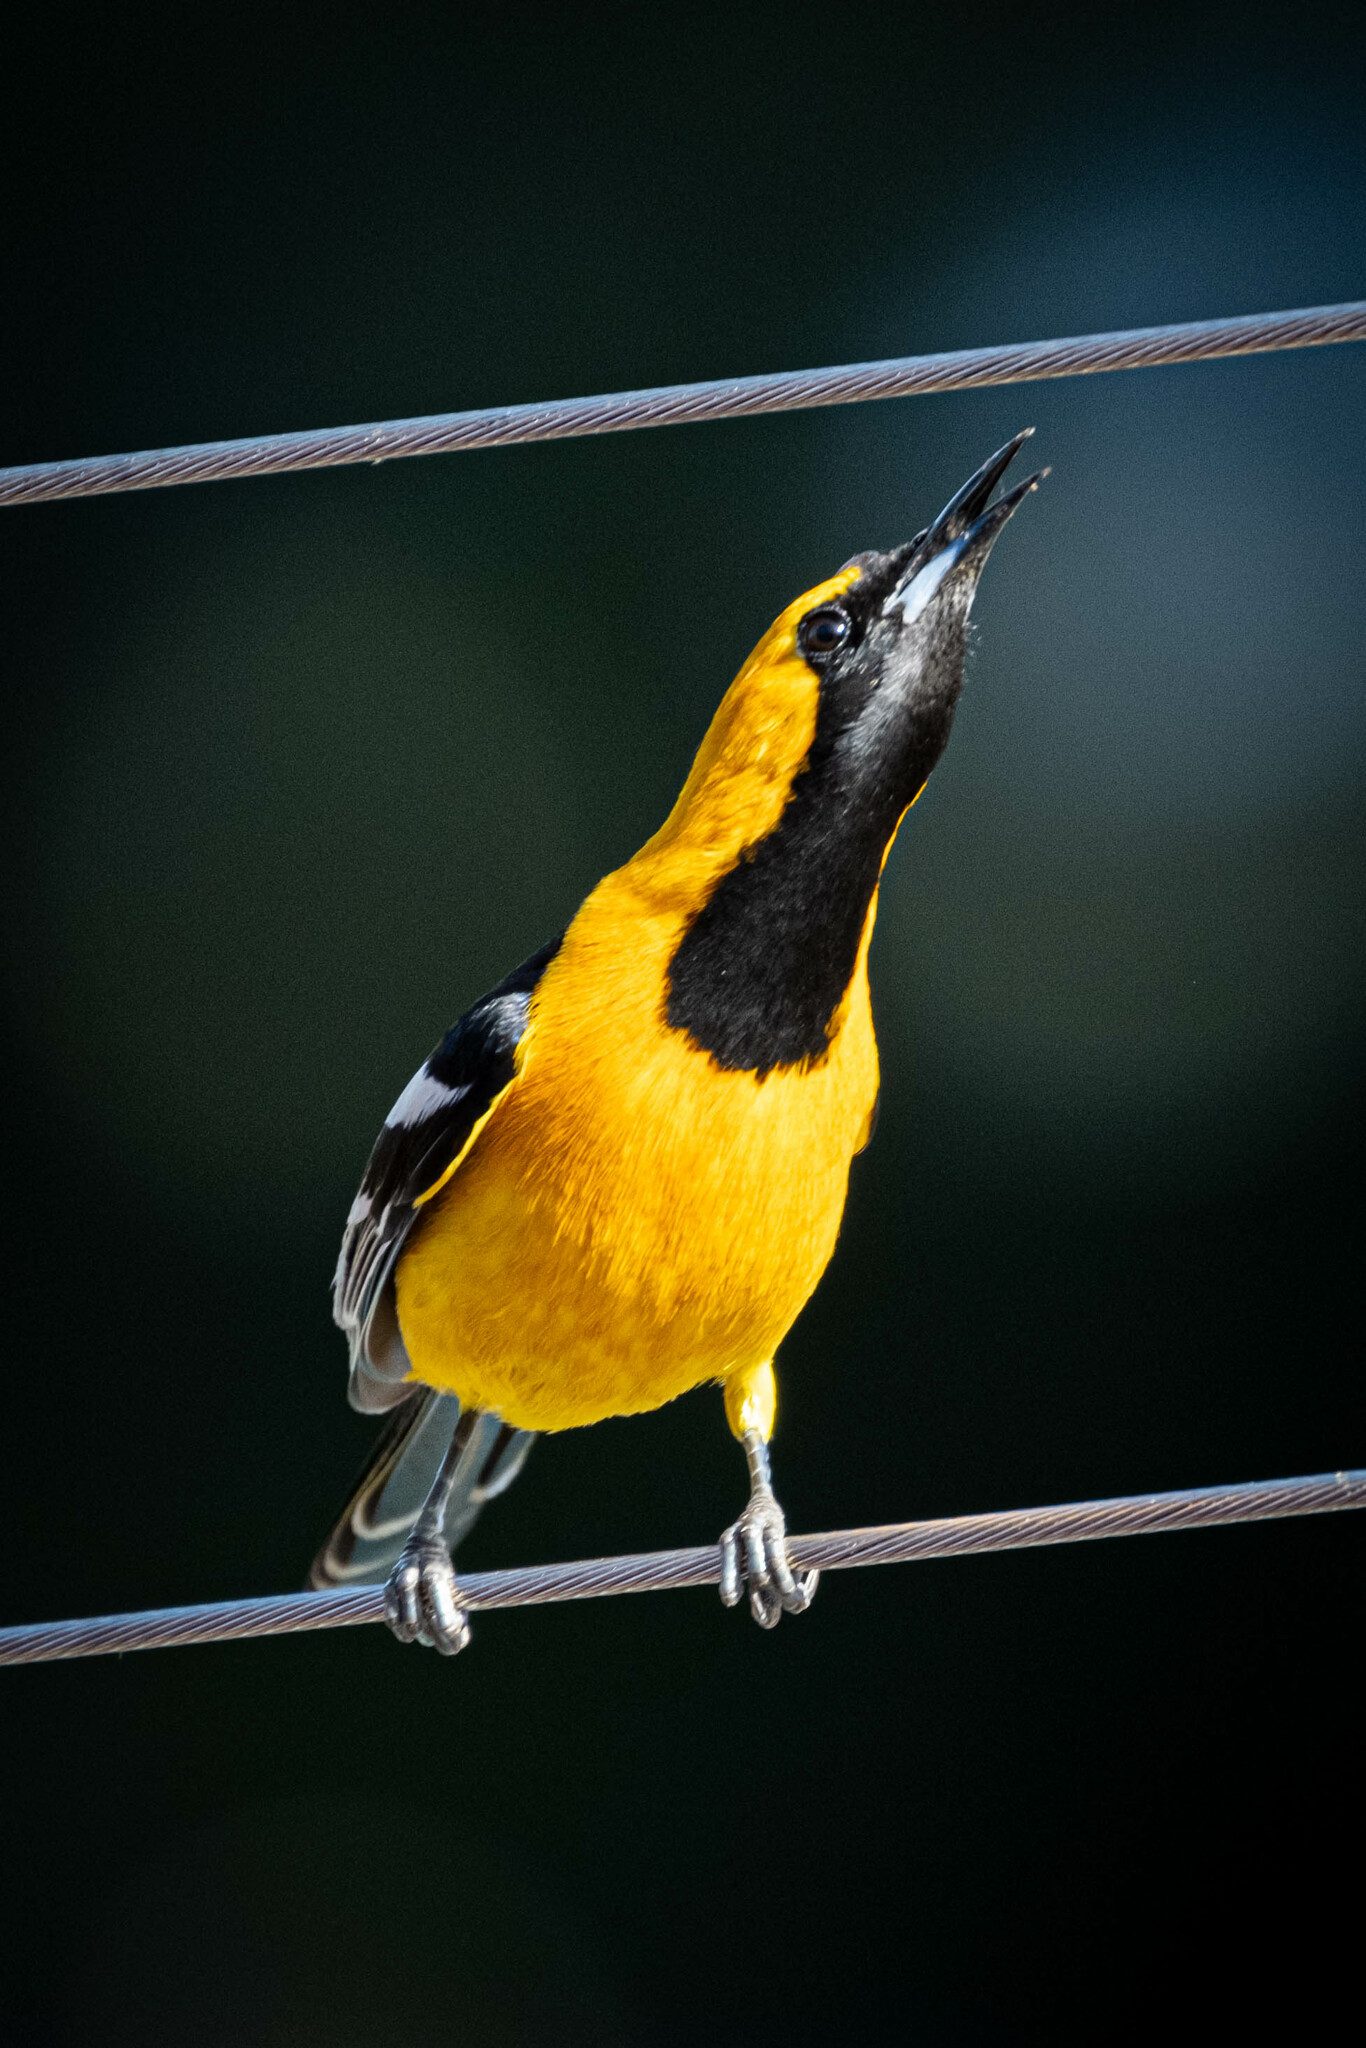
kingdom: Animalia
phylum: Chordata
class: Aves
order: Passeriformes
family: Icteridae
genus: Icterus
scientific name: Icterus cucullatus
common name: Hooded oriole
